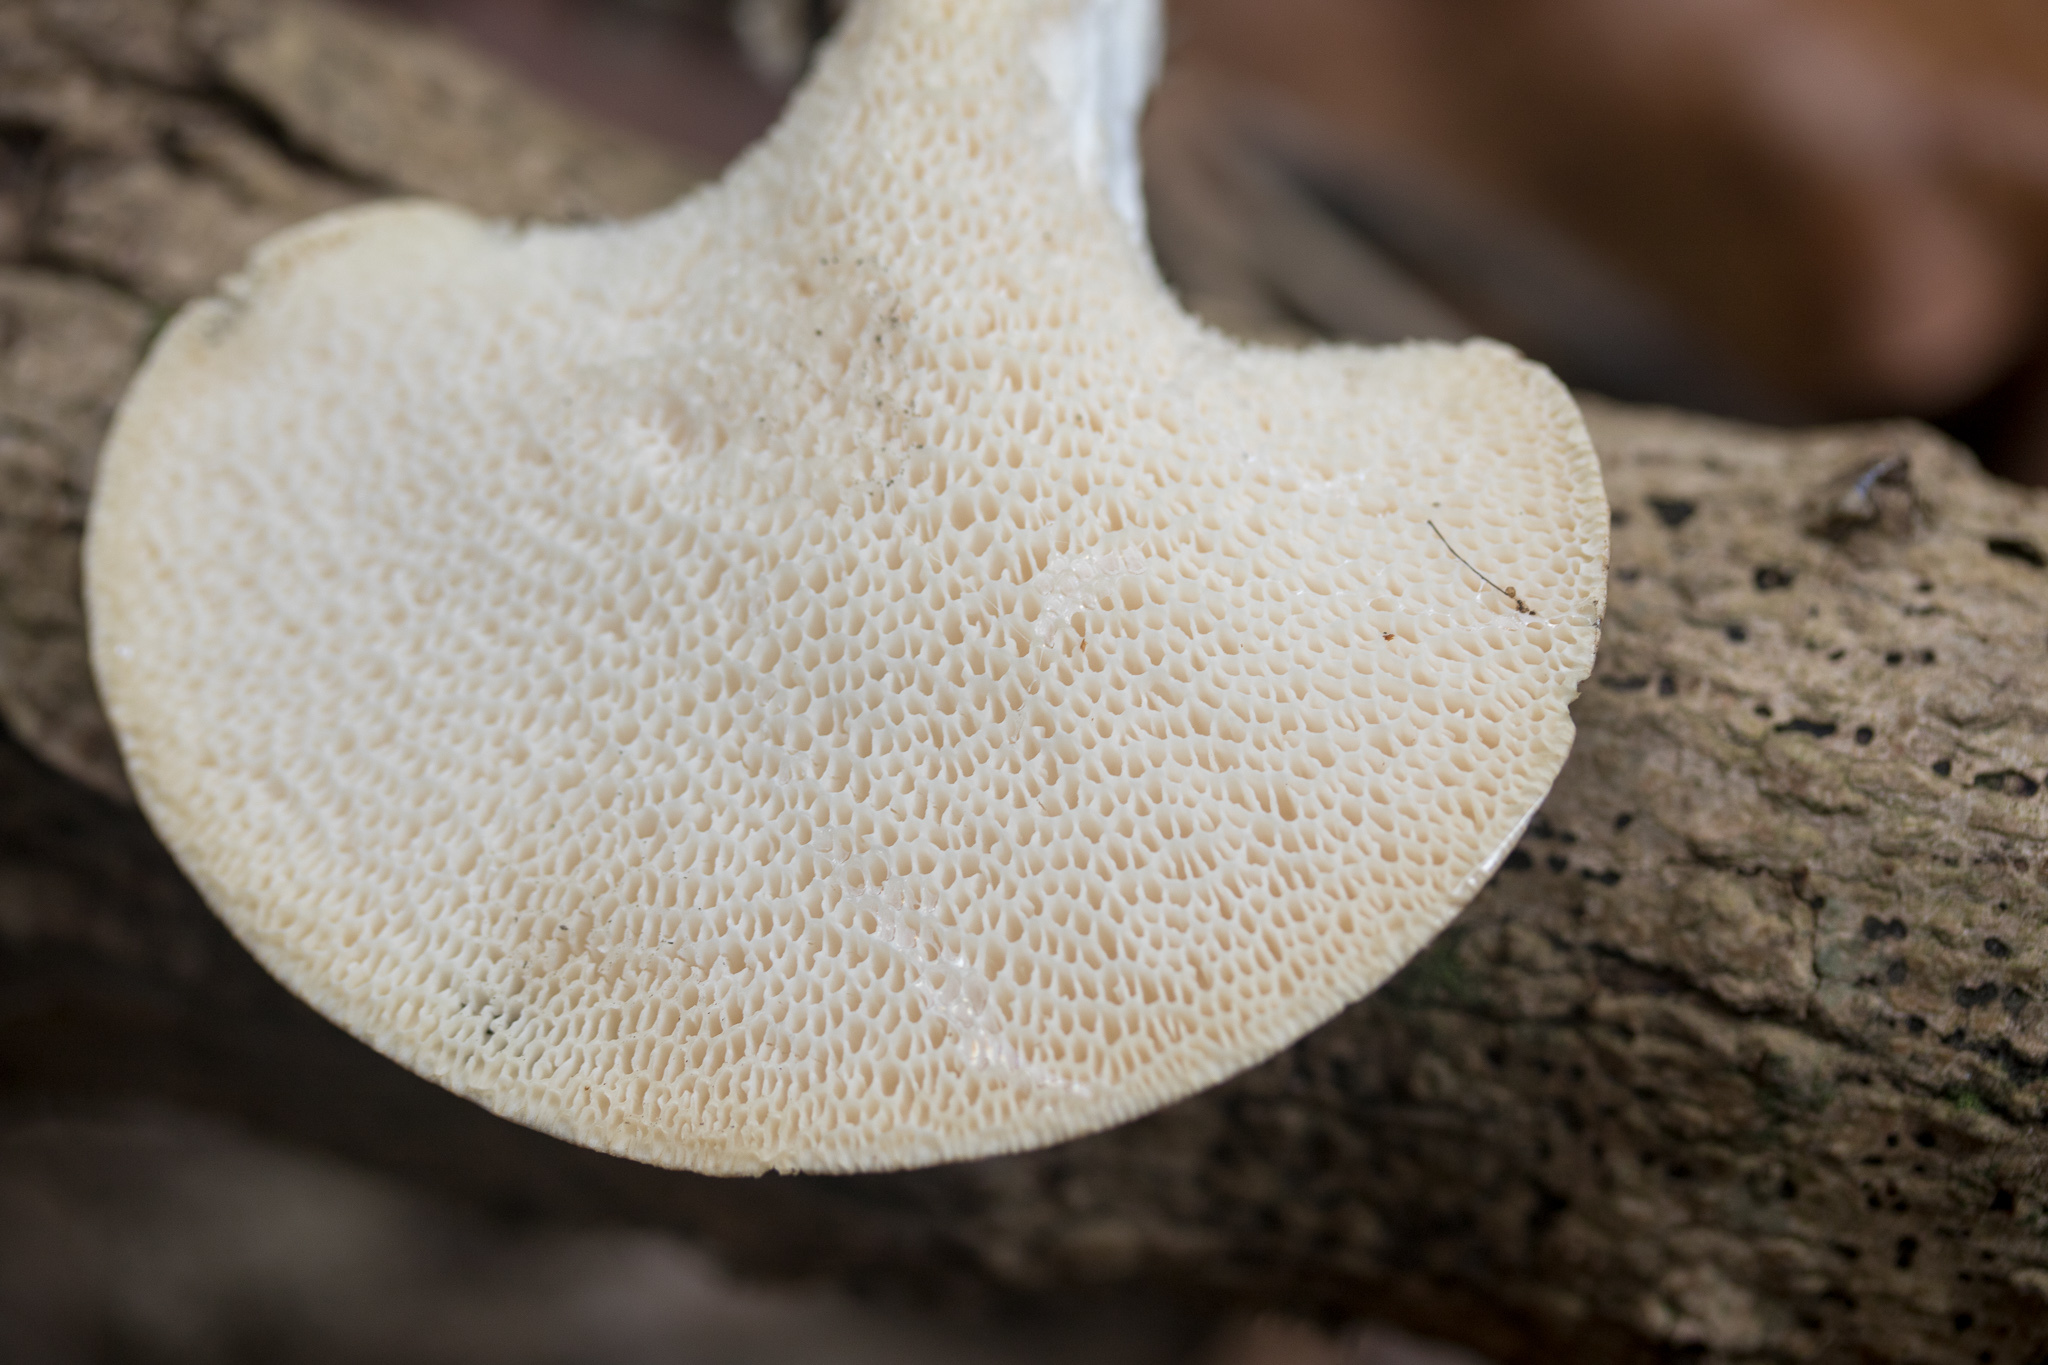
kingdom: Fungi
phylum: Basidiomycota
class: Agaricomycetes
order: Polyporales
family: Polyporaceae
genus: Cerioporus
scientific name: Cerioporus squamosus
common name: Dryad's saddle
